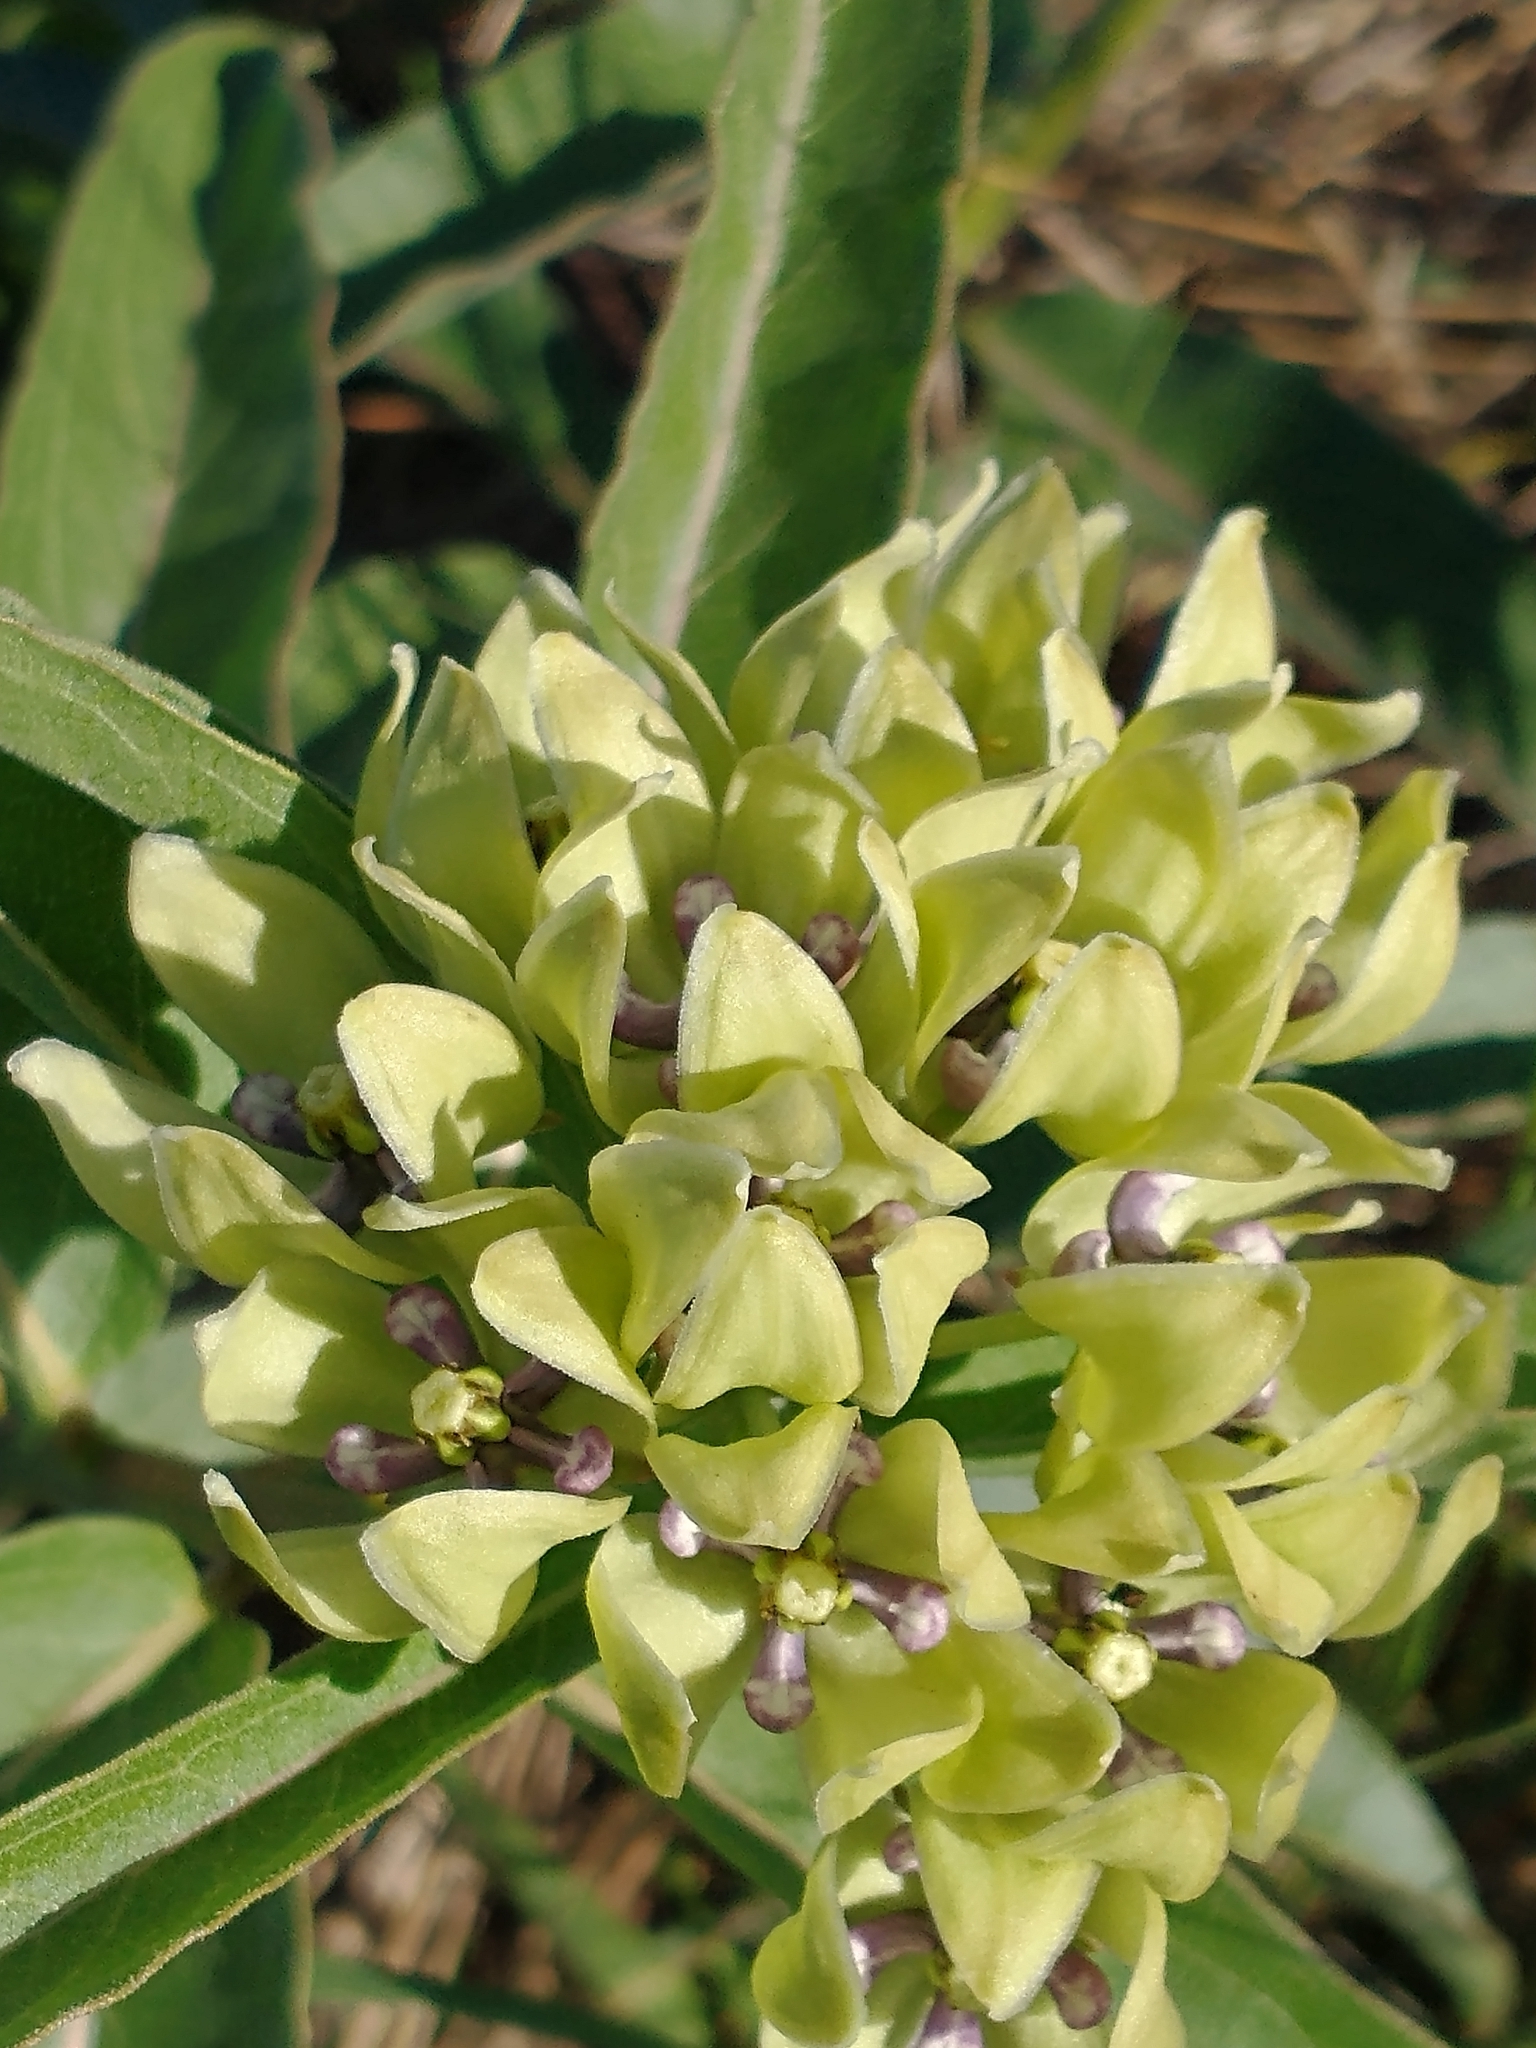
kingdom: Plantae
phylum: Tracheophyta
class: Magnoliopsida
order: Gentianales
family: Apocynaceae
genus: Asclepias
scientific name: Asclepias viridis
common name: Antelope-horns
